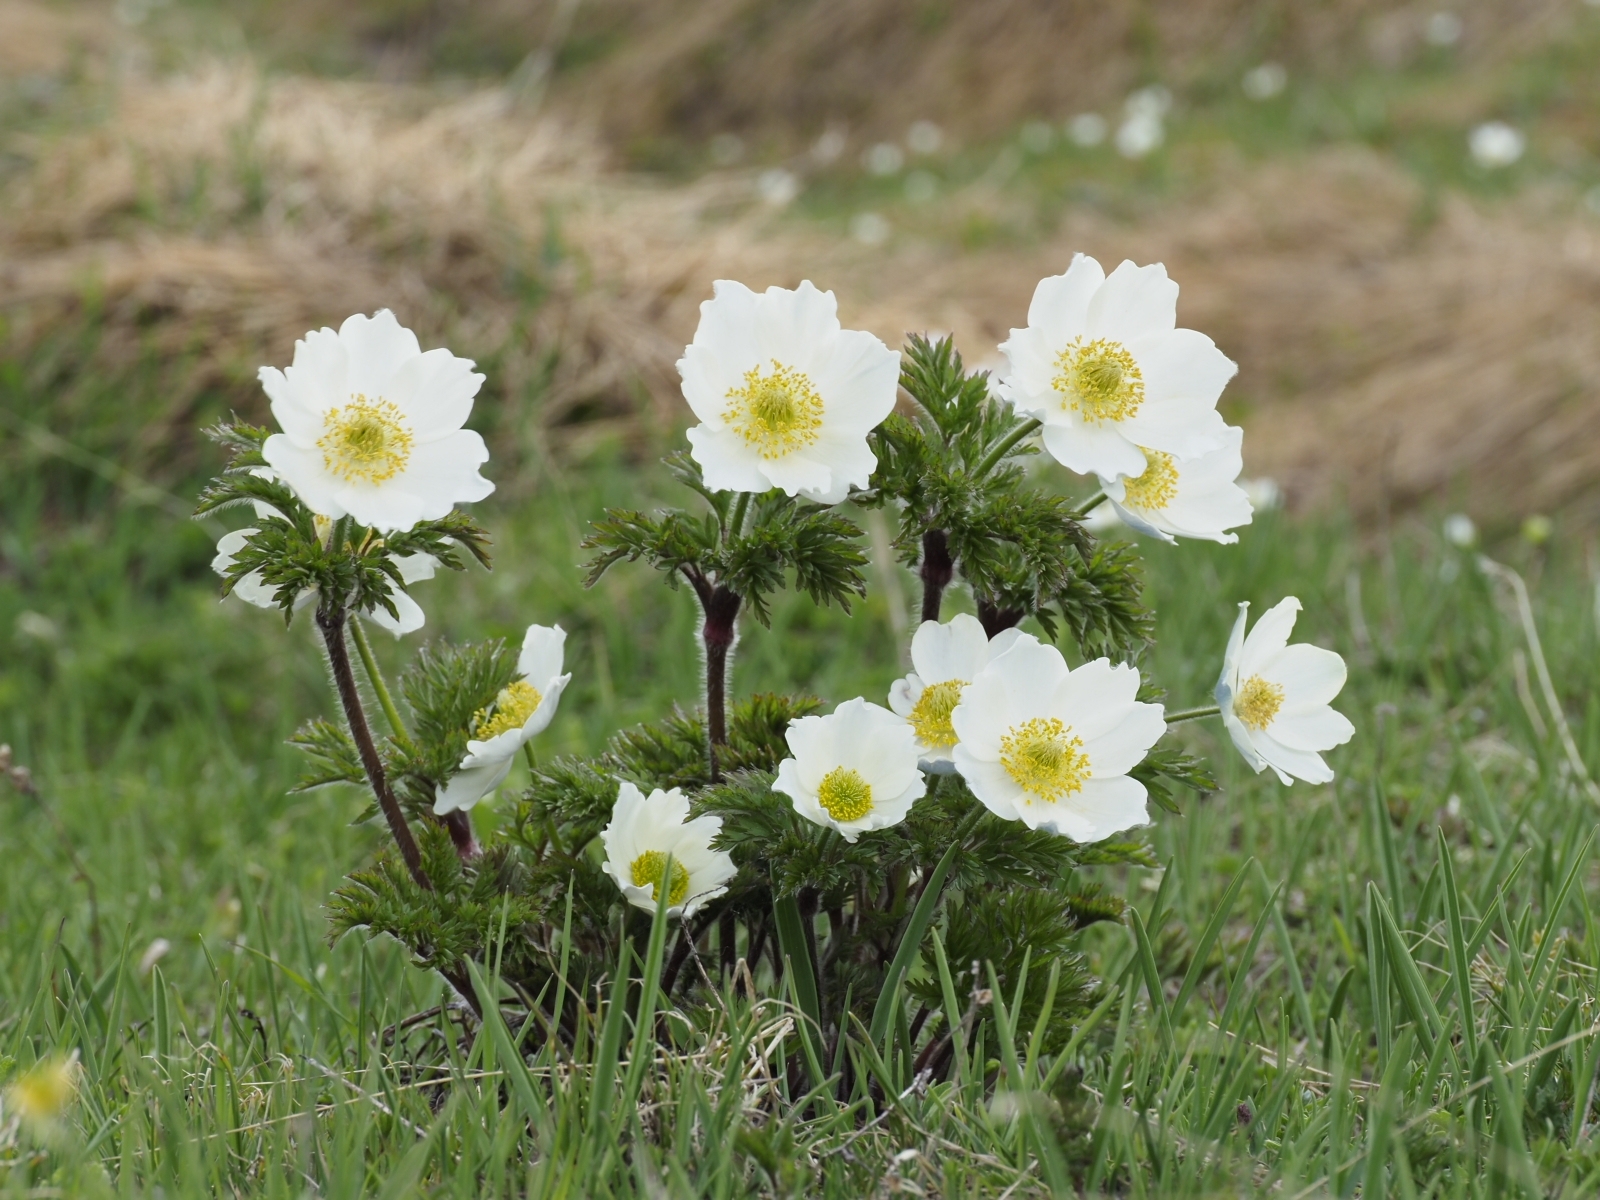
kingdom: Plantae
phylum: Tracheophyta
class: Magnoliopsida
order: Ranunculales
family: Ranunculaceae
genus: Pulsatilla
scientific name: Pulsatilla alpina
